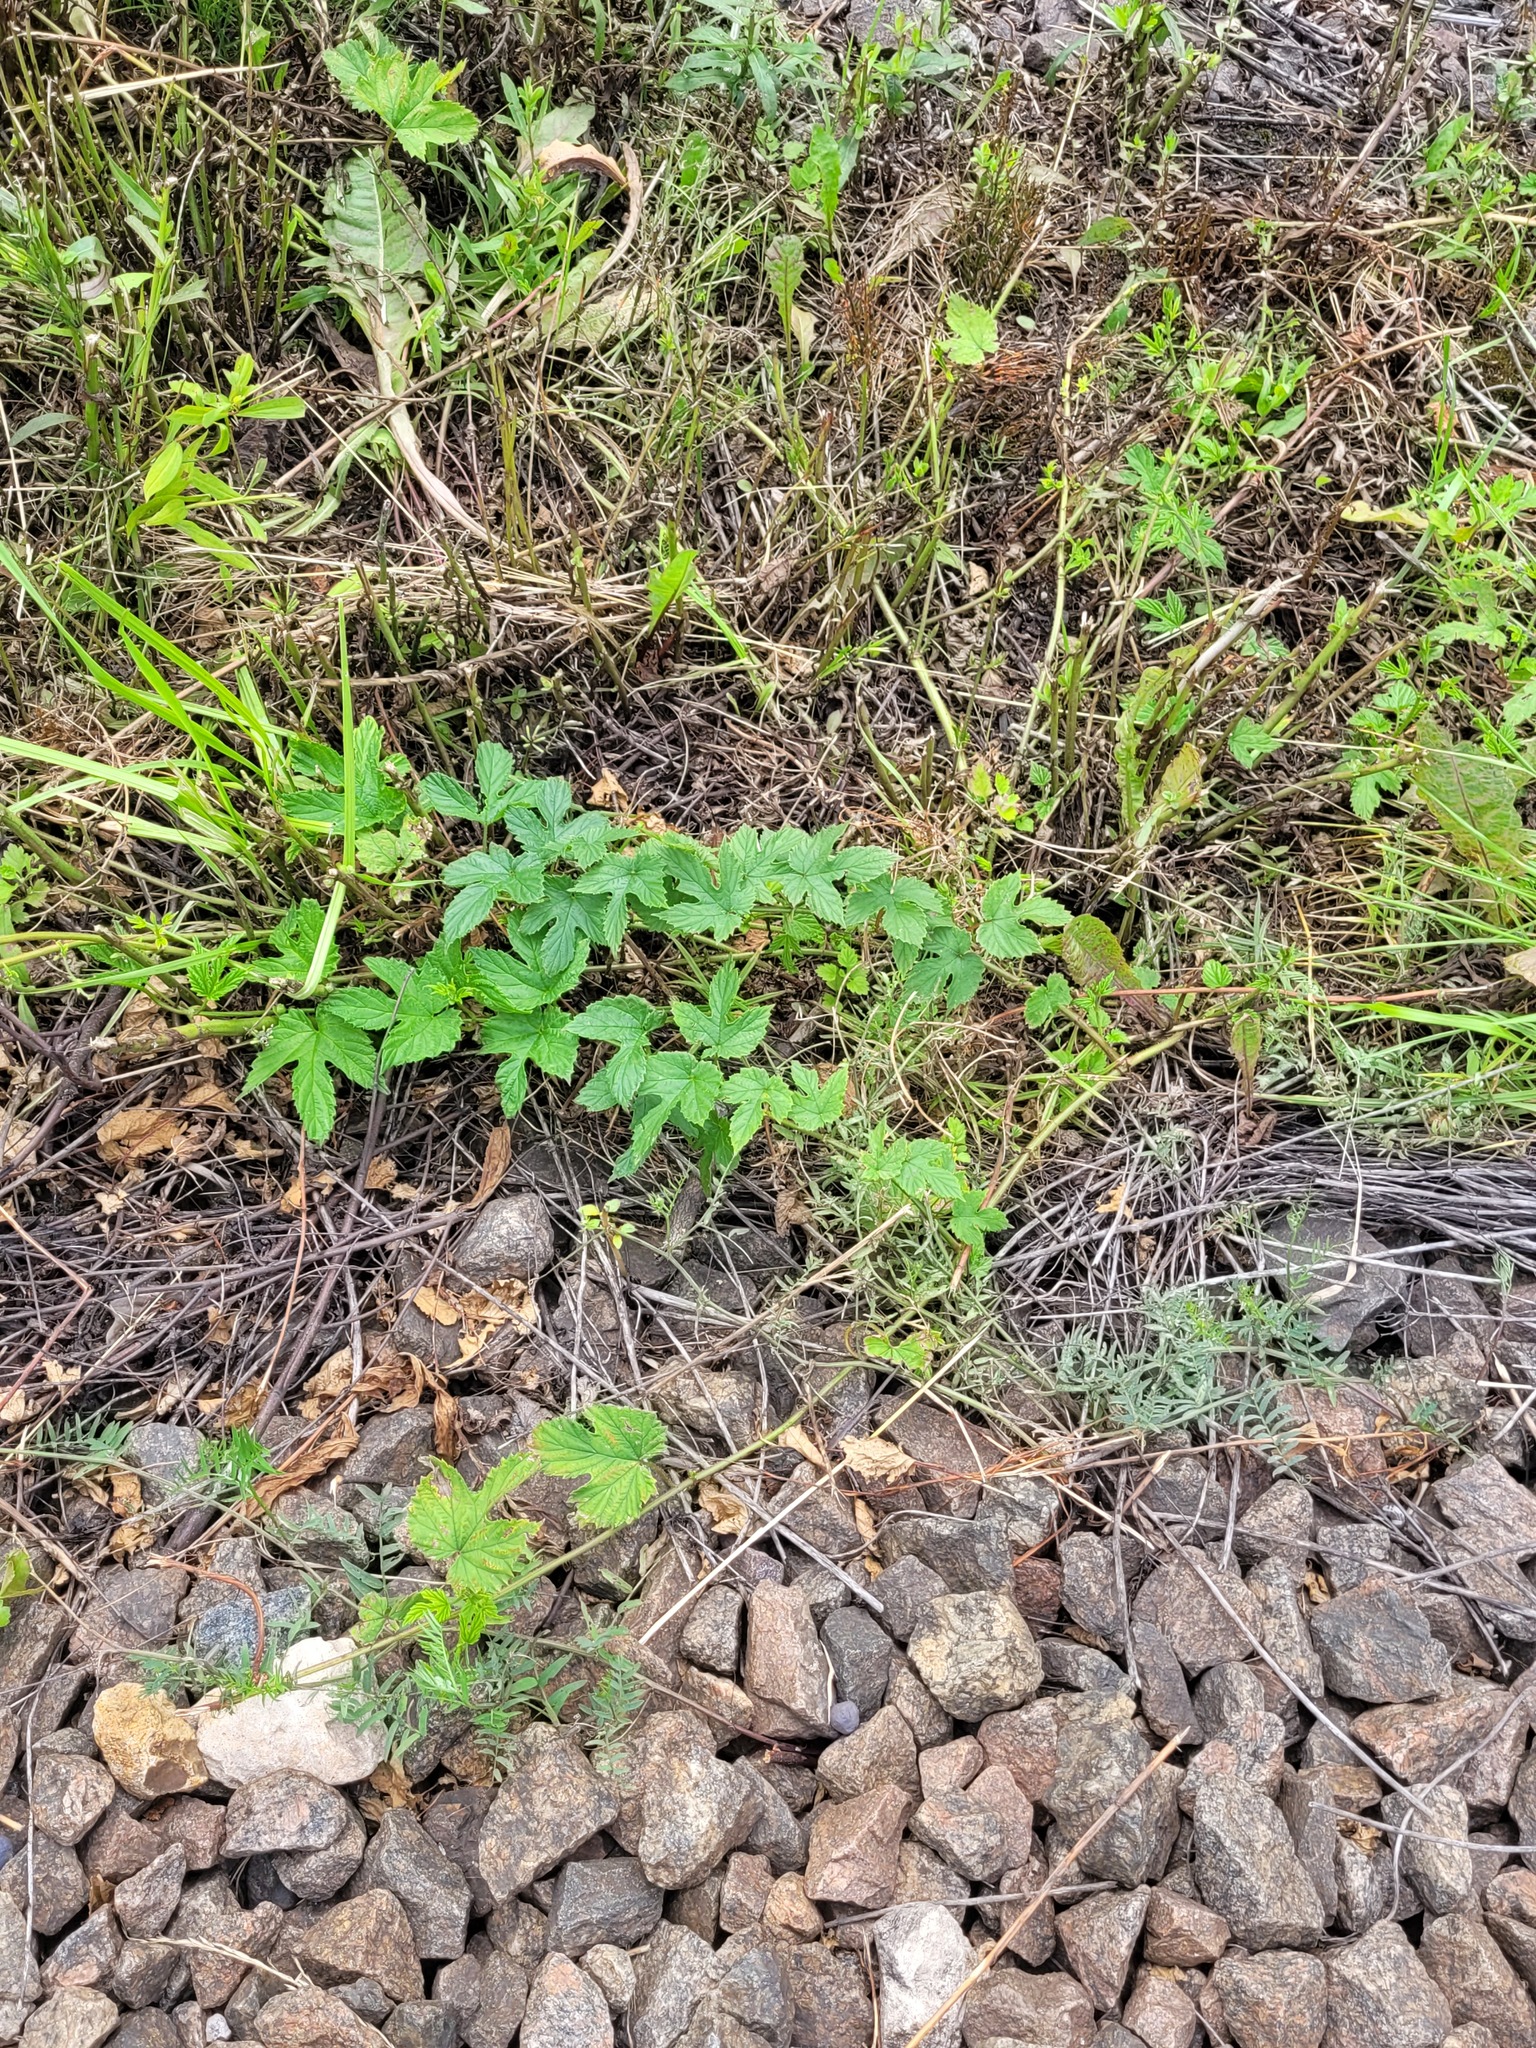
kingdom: Plantae
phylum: Tracheophyta
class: Magnoliopsida
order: Rosales
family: Cannabaceae
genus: Humulus
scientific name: Humulus lupulus
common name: Hop
